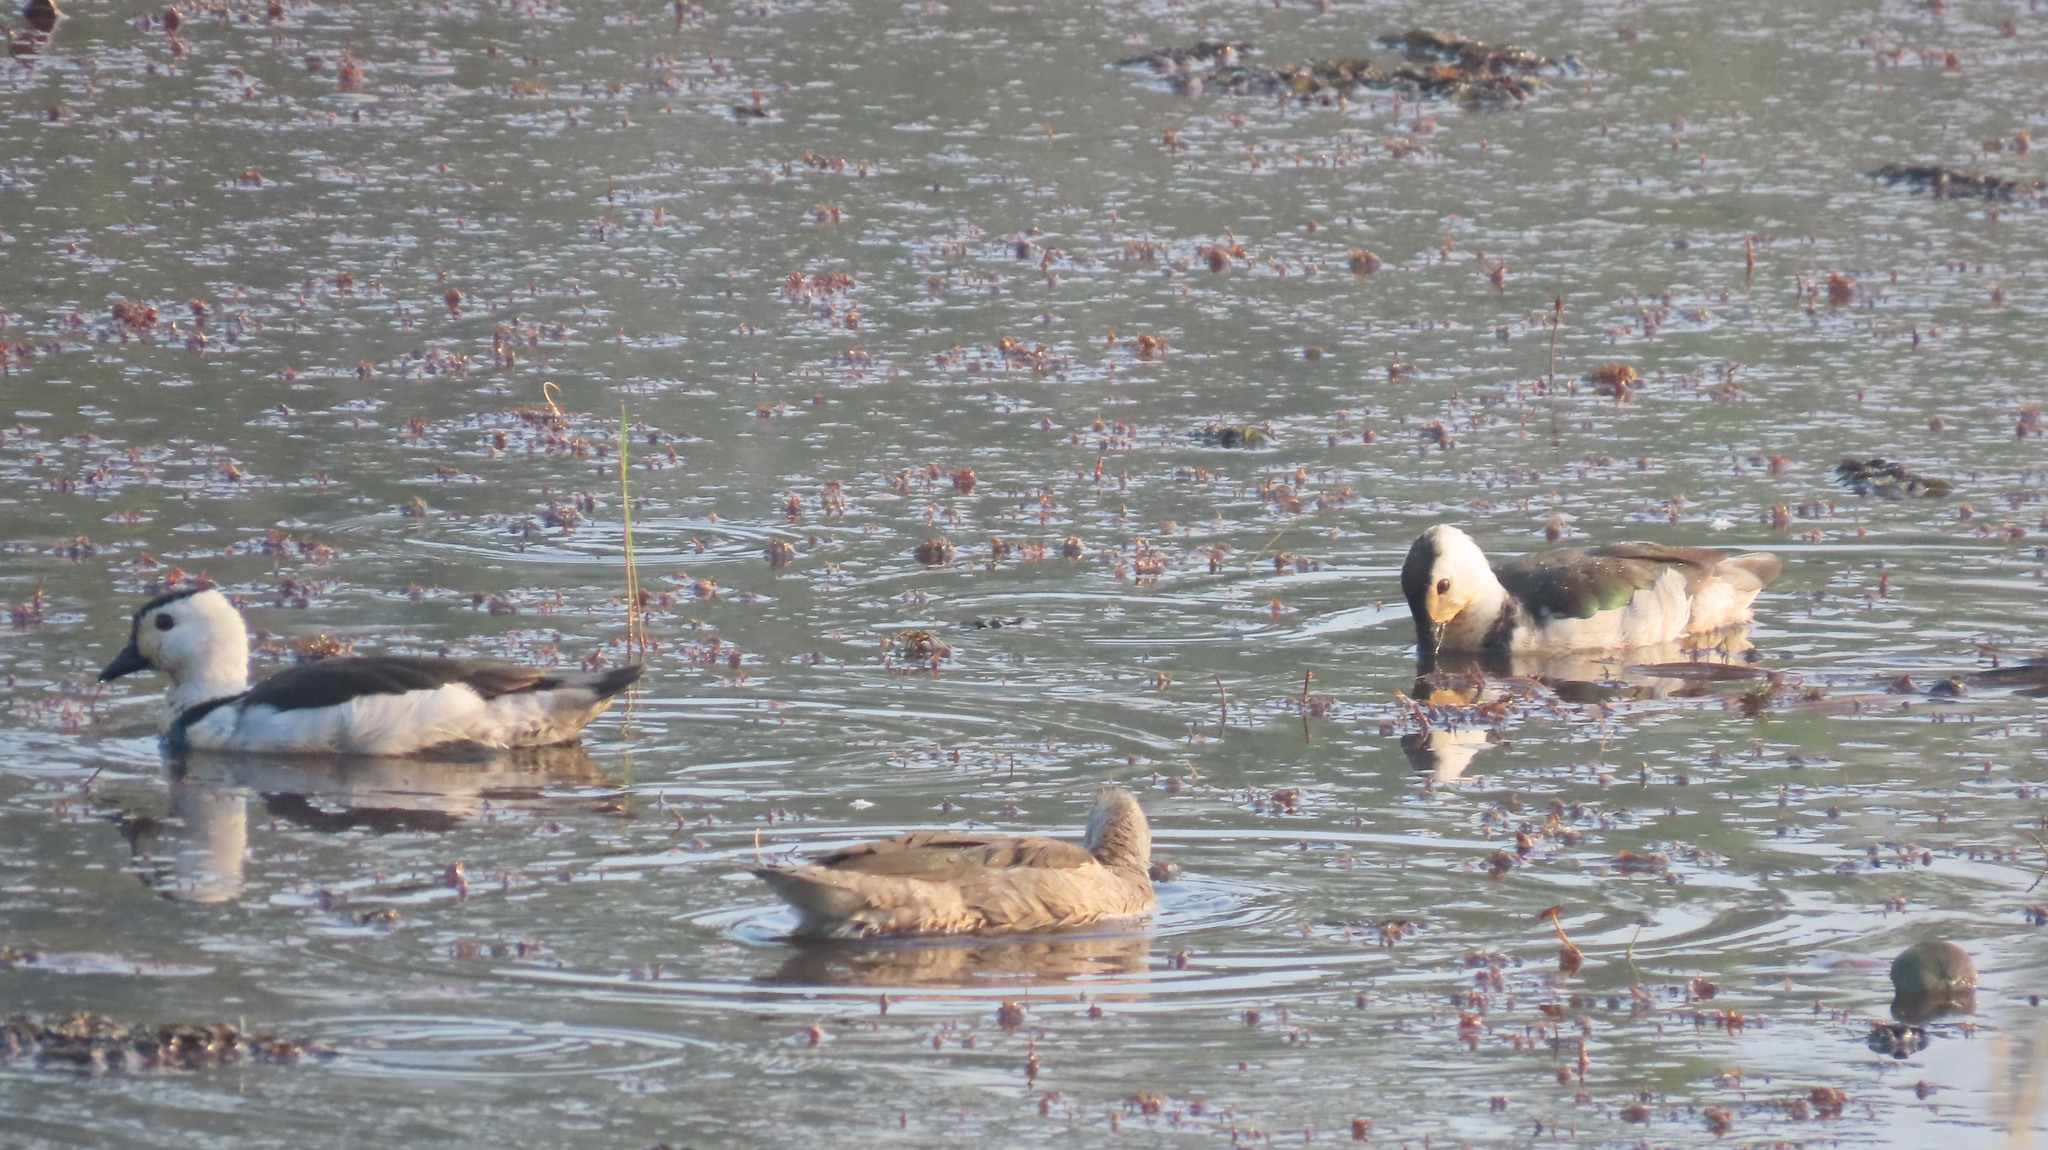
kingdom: Animalia
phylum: Chordata
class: Aves
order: Anseriformes
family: Anatidae
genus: Nettapus
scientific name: Nettapus coromandelianus
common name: Cotton pygmy-goose
